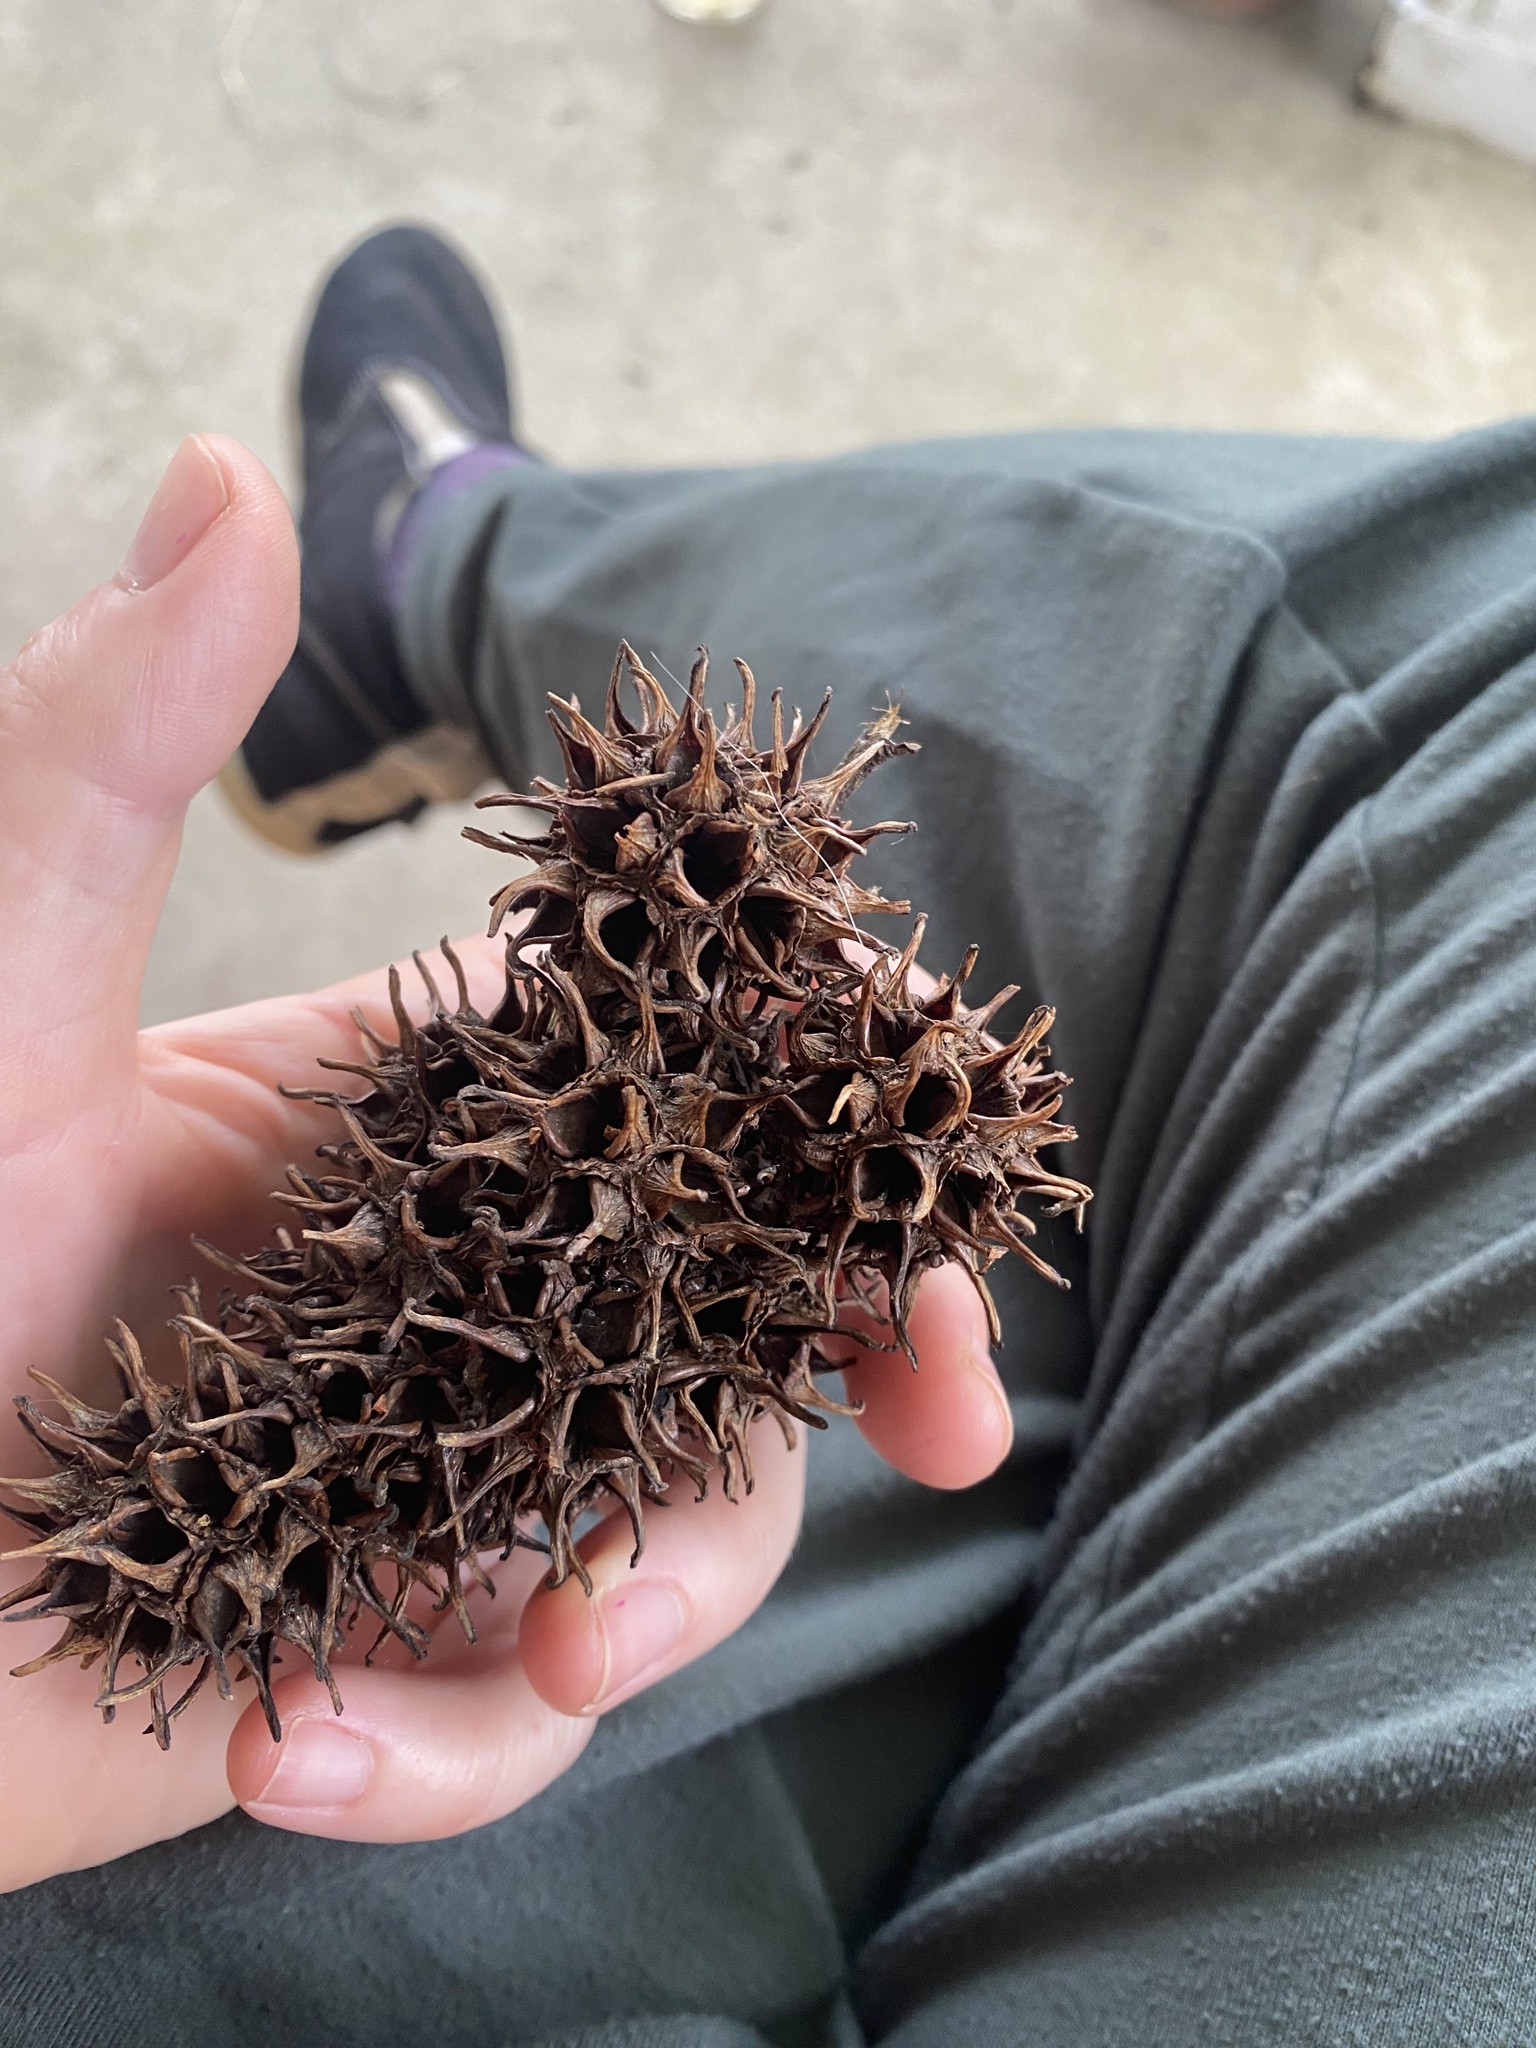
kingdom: Plantae
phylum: Tracheophyta
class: Magnoliopsida
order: Saxifragales
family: Altingiaceae
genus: Liquidambar
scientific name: Liquidambar styraciflua
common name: Sweet gum
